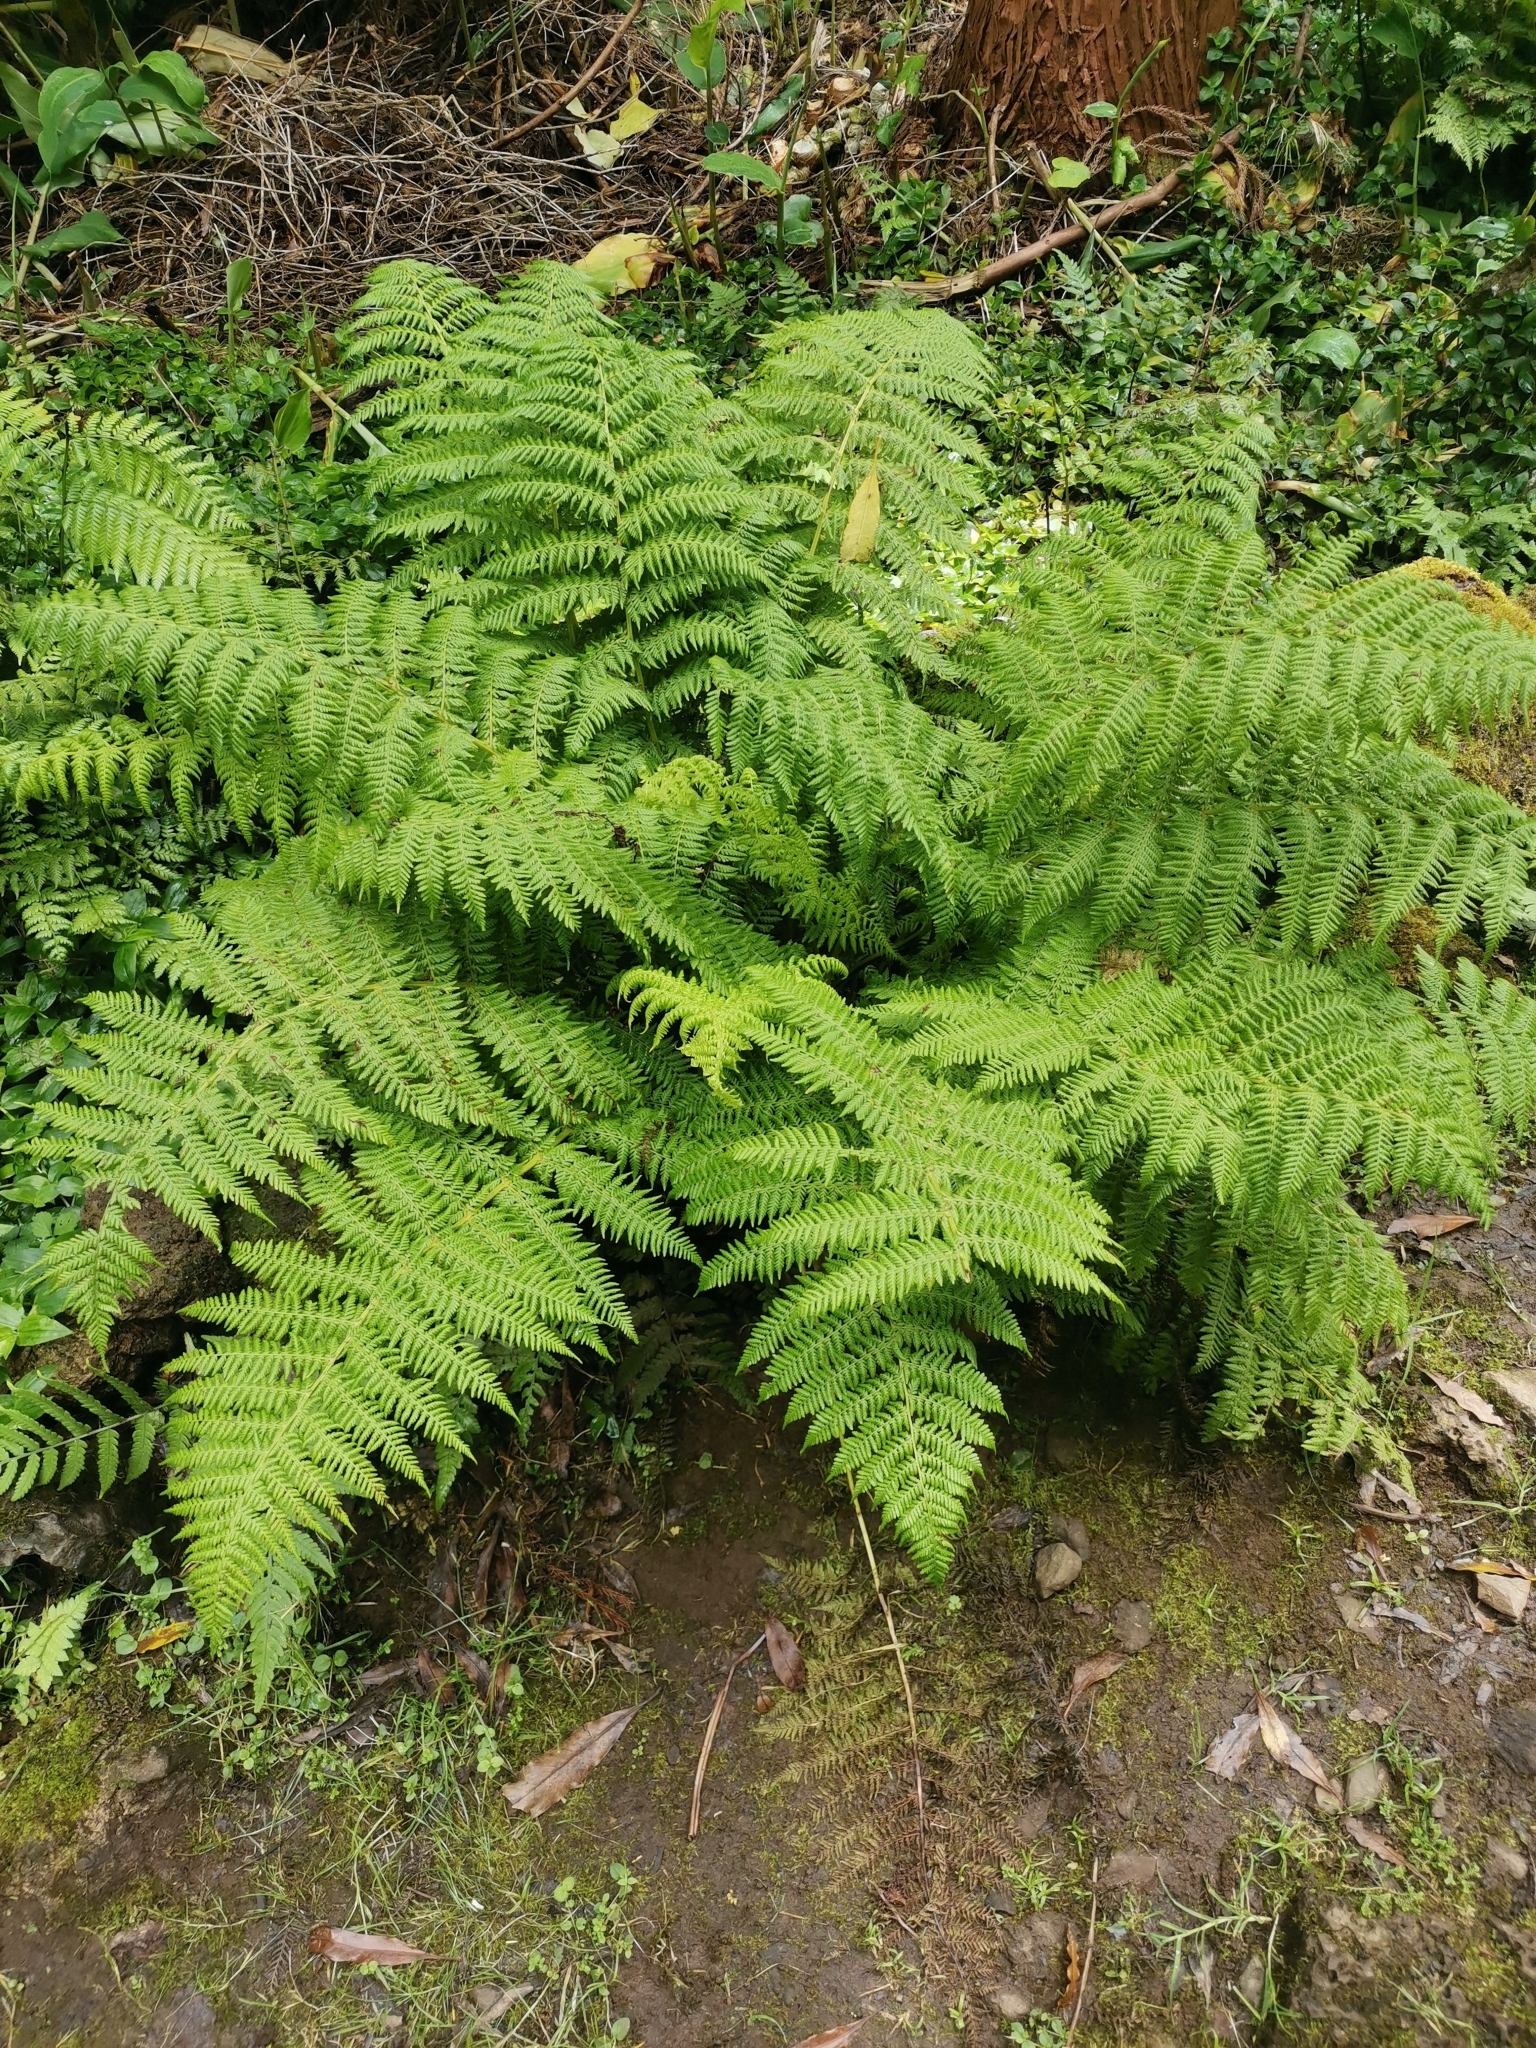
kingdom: Plantae
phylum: Tracheophyta
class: Polypodiopsida
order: Polypodiales
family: Dryopteridaceae
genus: Dryopteris
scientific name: Dryopteris intermedia
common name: Evergreen wood fern
